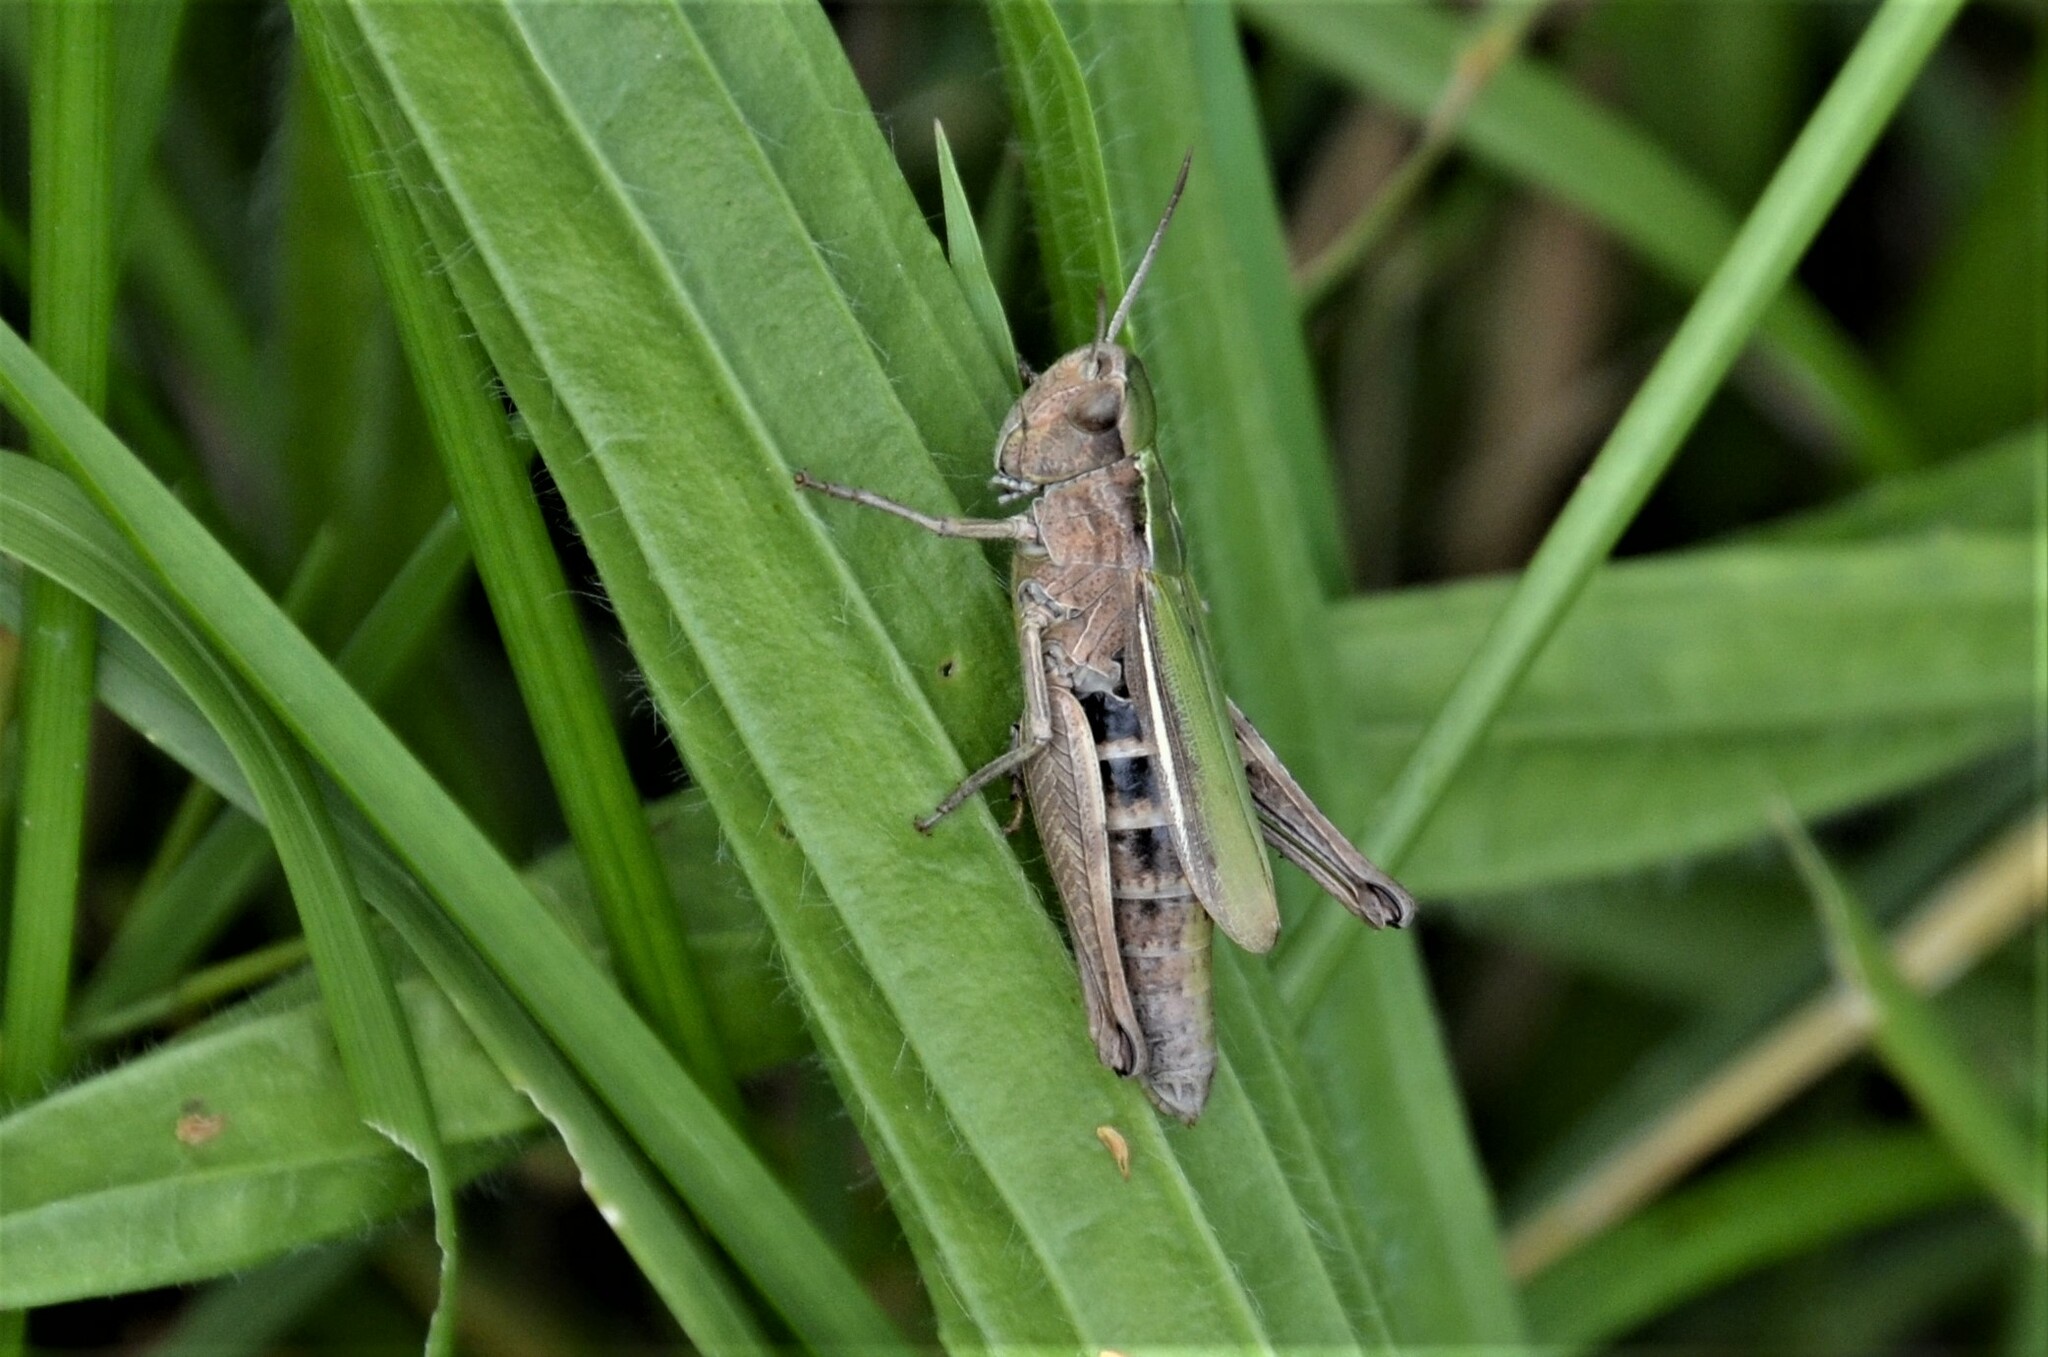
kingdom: Animalia
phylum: Arthropoda
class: Insecta
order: Orthoptera
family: Acrididae
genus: Chorthippus
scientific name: Chorthippus albomarginatus
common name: Lesser marsh grasshopper
